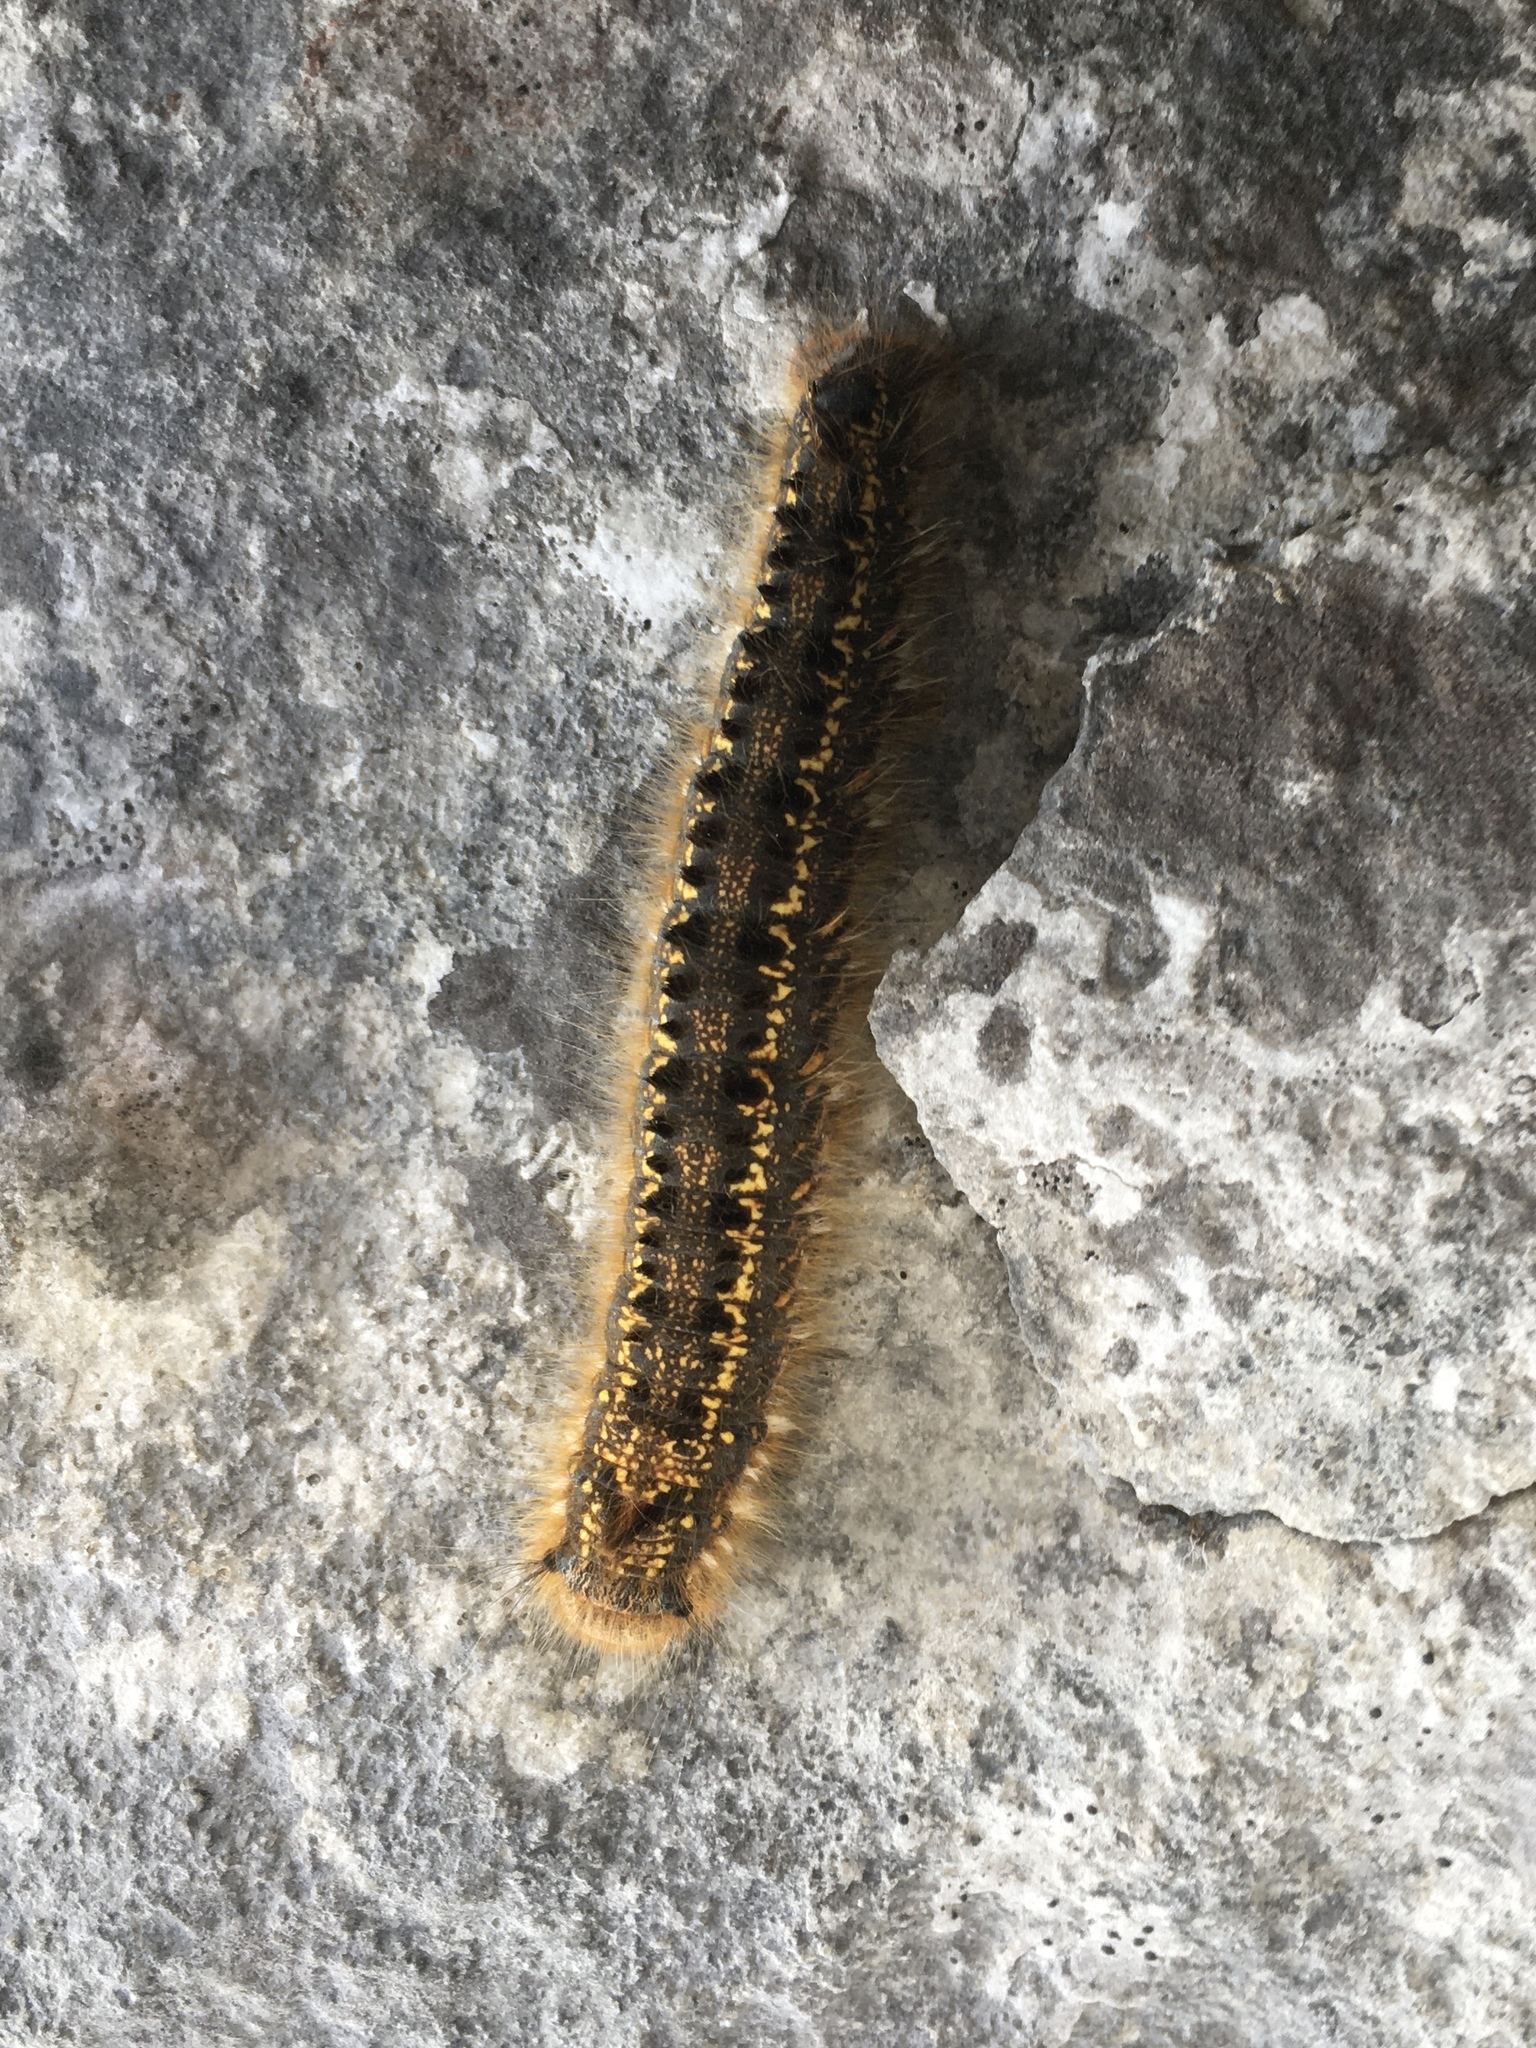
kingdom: Animalia
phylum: Arthropoda
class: Insecta
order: Lepidoptera
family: Lasiocampidae
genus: Euthrix
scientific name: Euthrix potatoria
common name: Drinker
